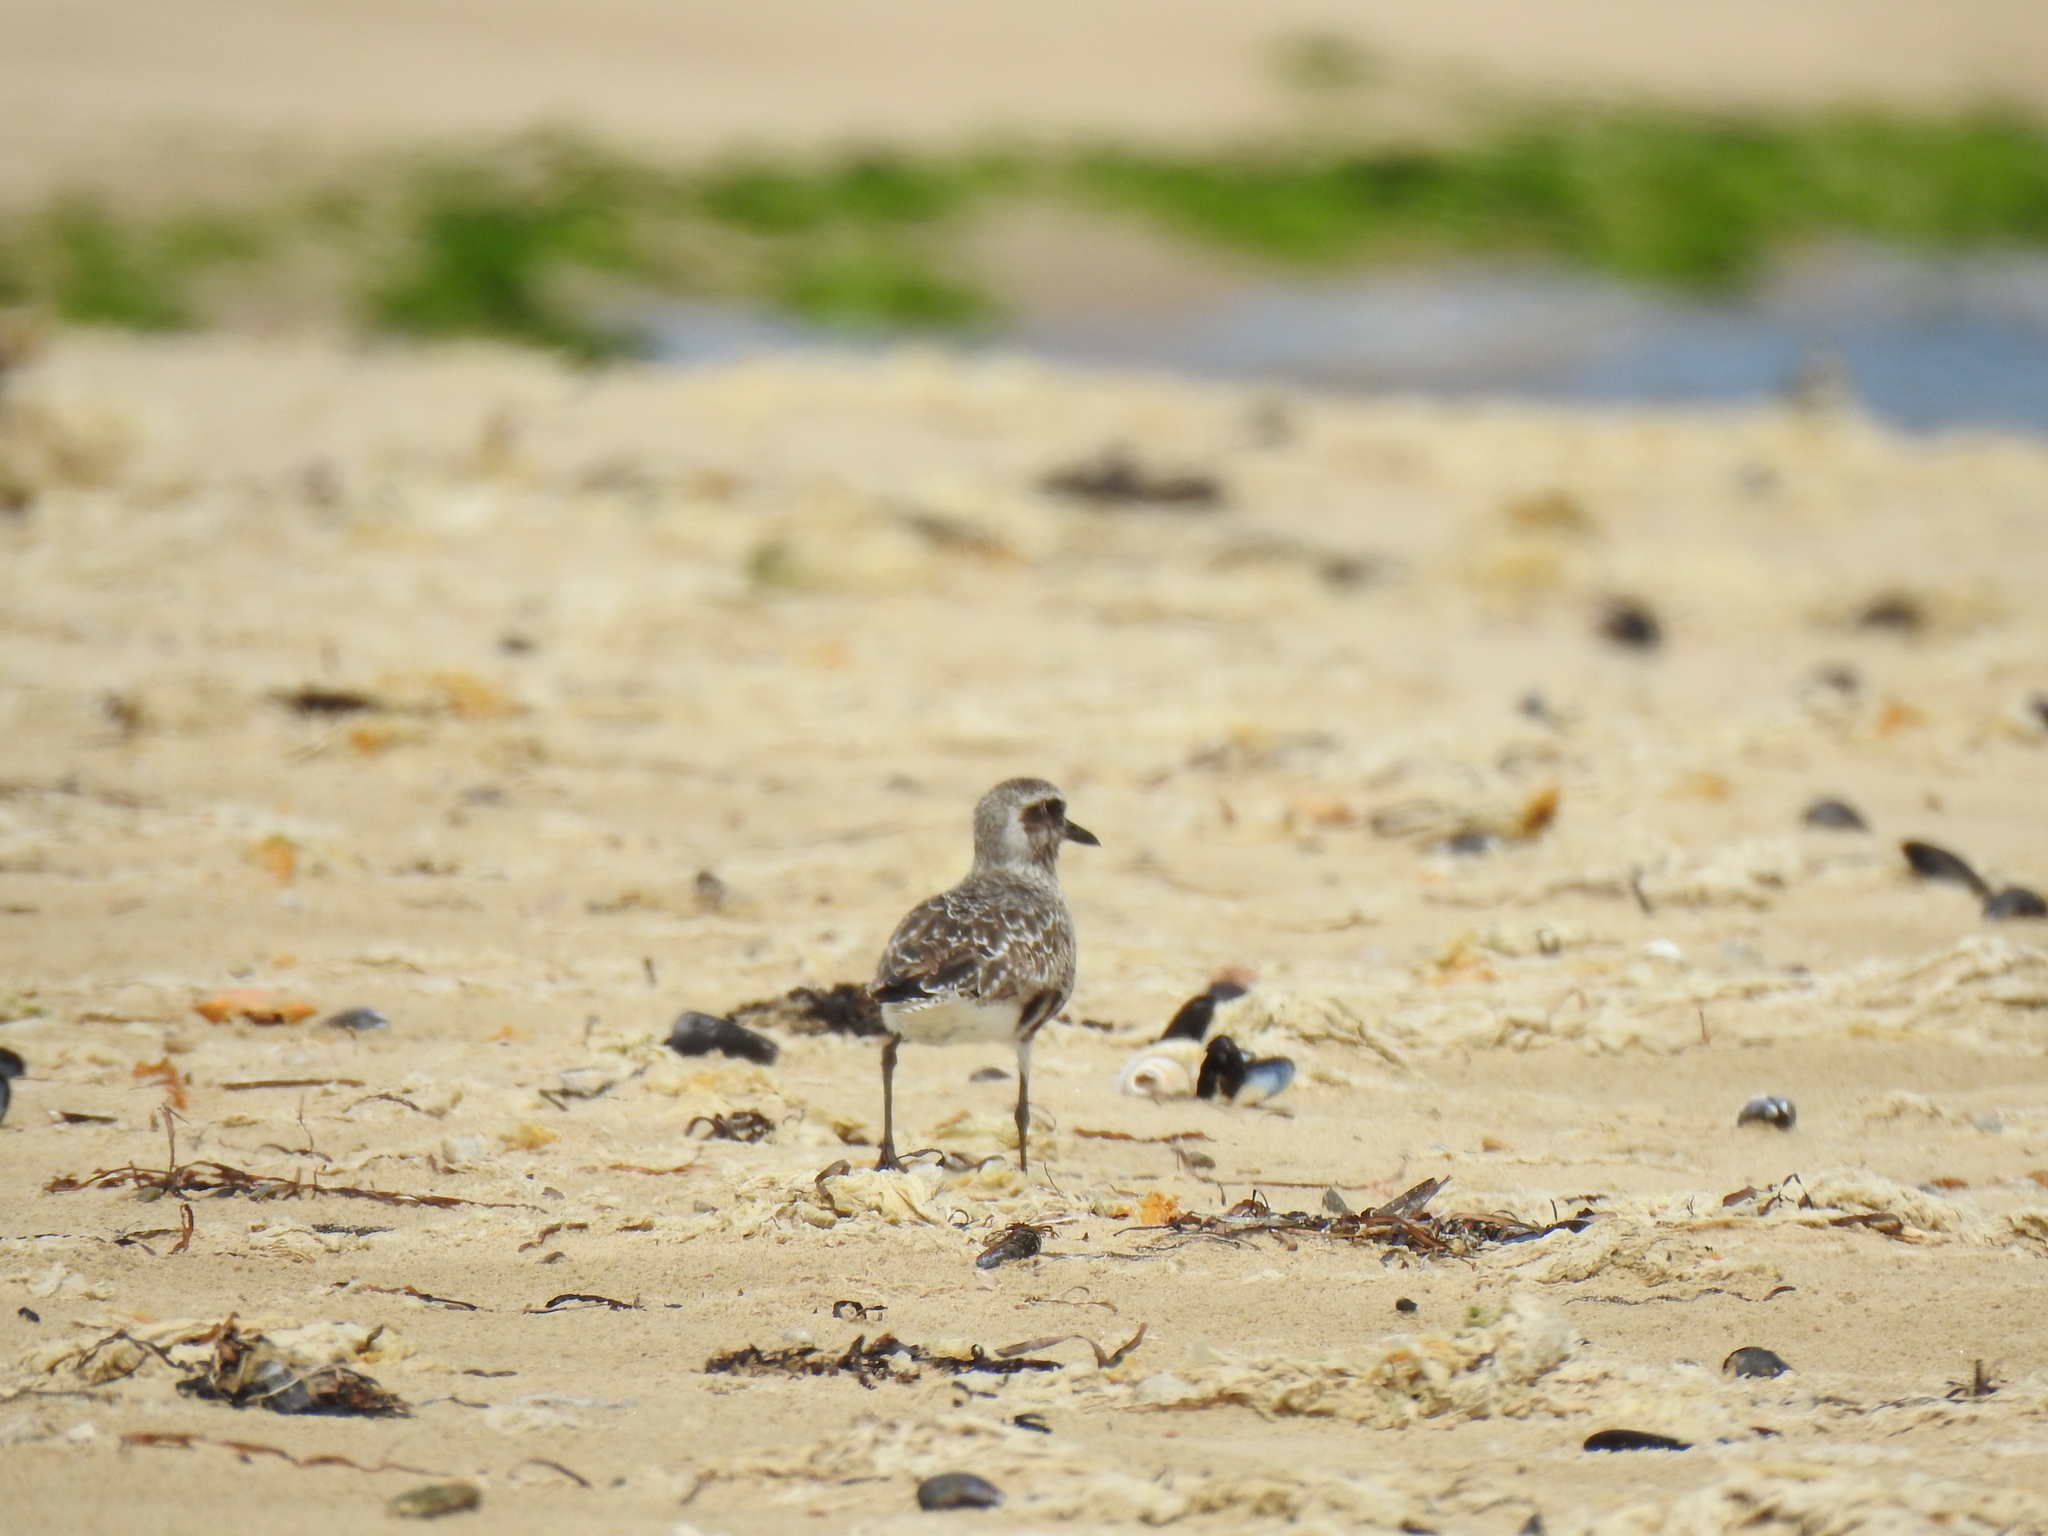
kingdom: Animalia
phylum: Chordata
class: Aves
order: Charadriiformes
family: Charadriidae
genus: Pluvialis
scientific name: Pluvialis squatarola
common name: Grey plover
